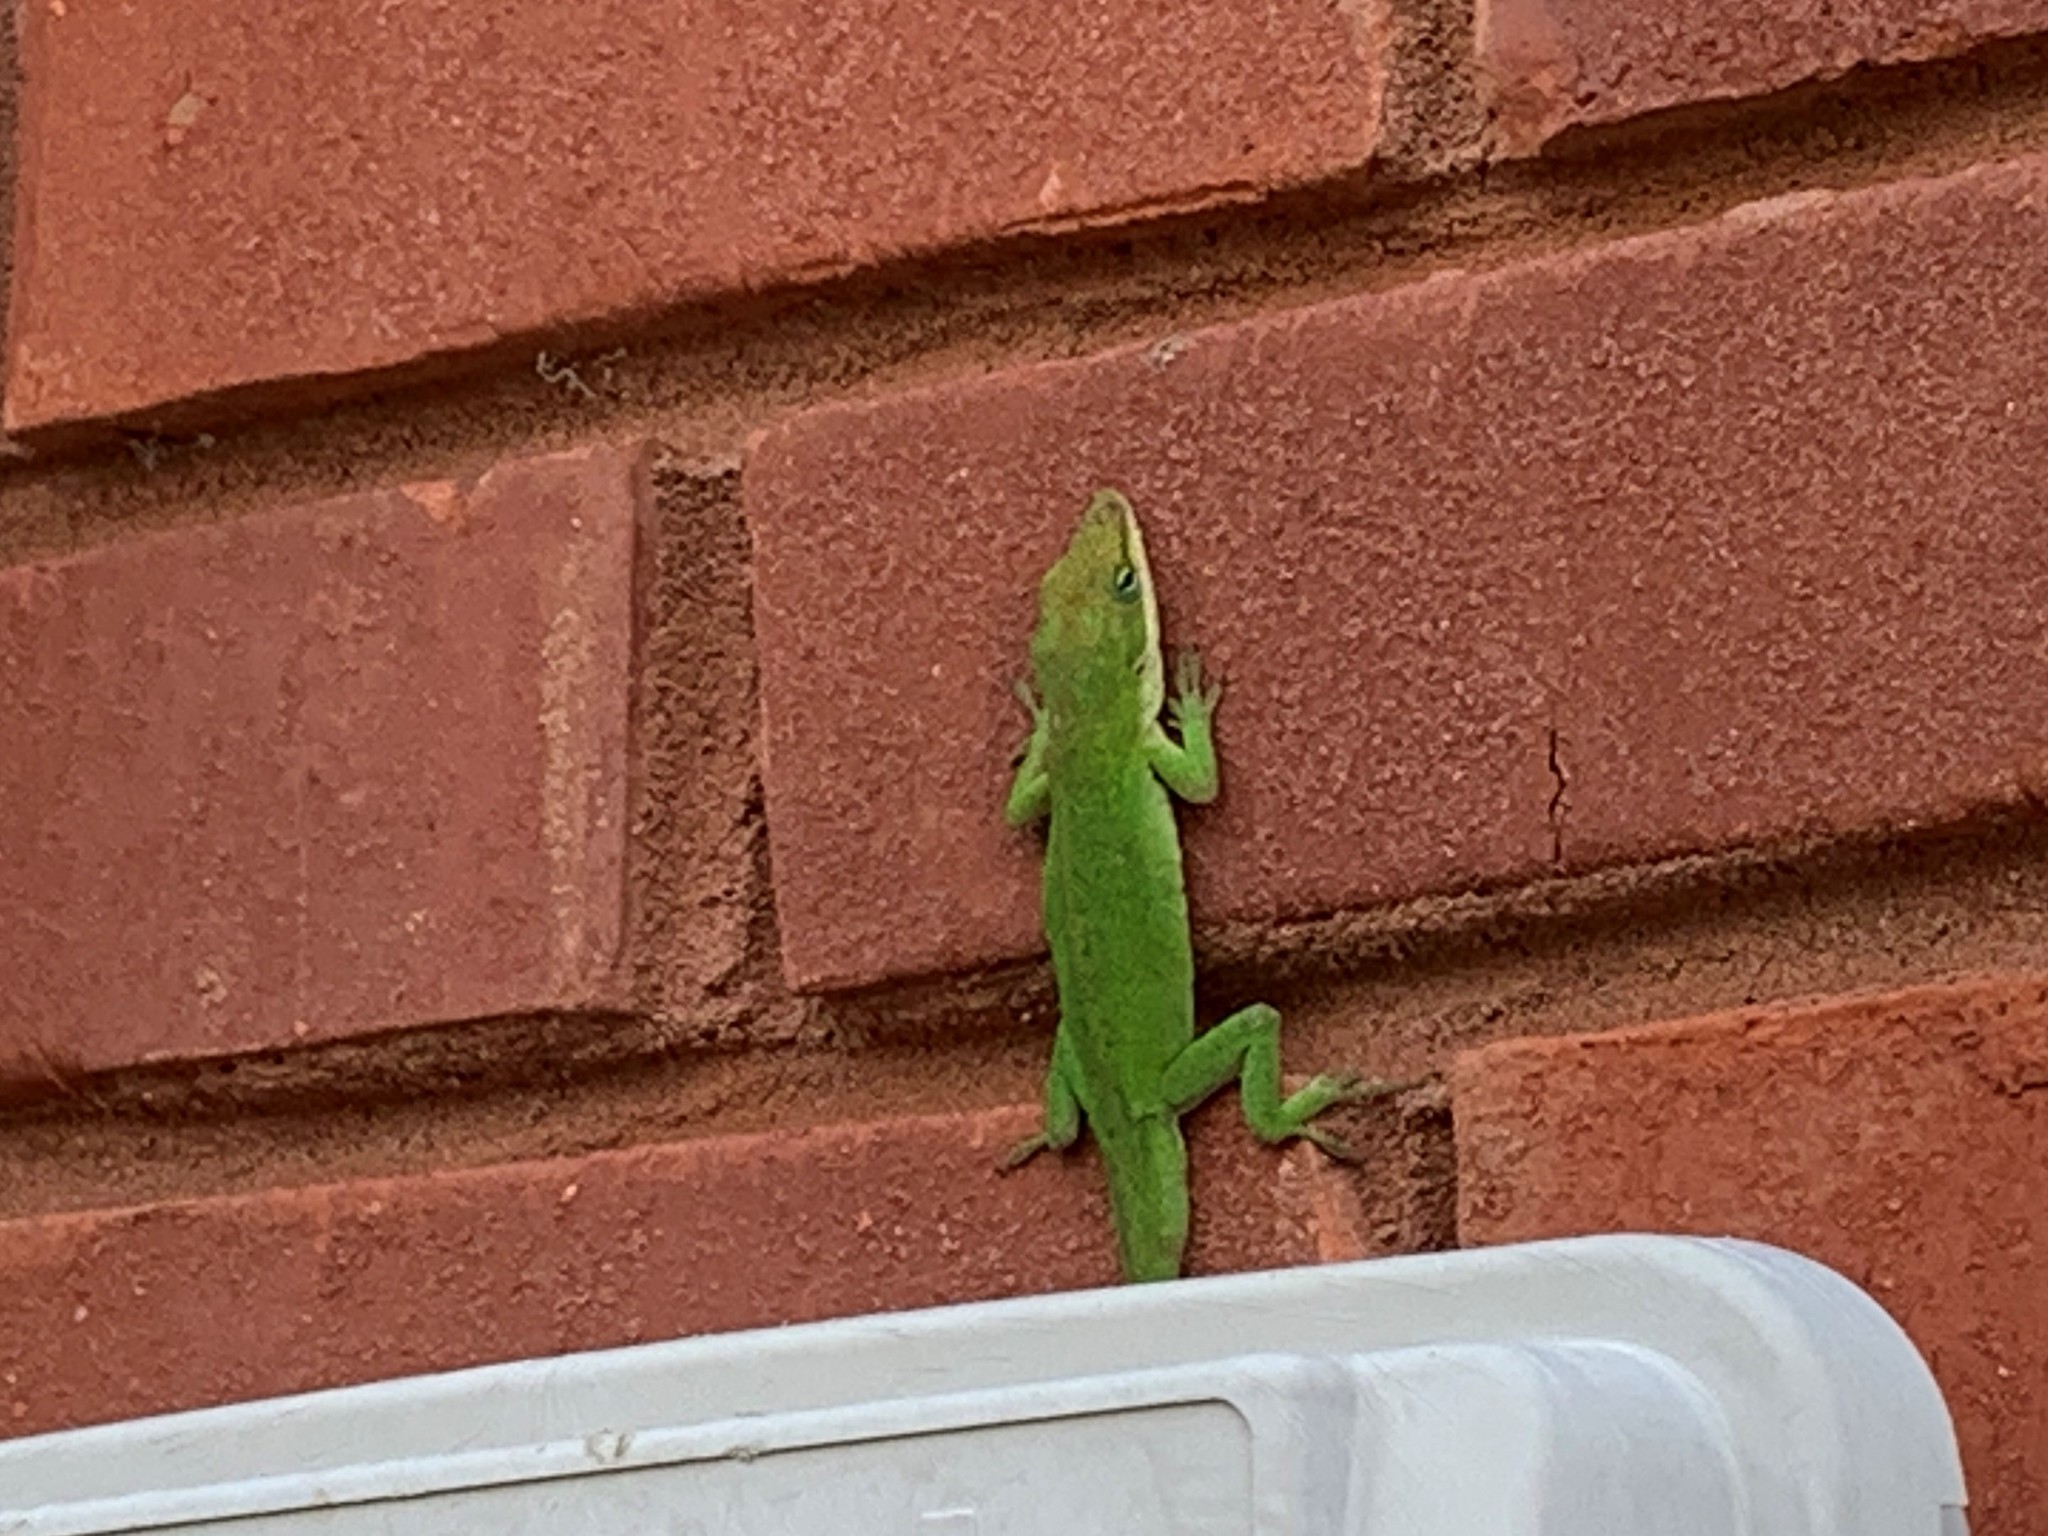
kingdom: Animalia
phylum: Chordata
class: Squamata
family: Dactyloidae
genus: Anolis
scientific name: Anolis carolinensis
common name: Green anole
